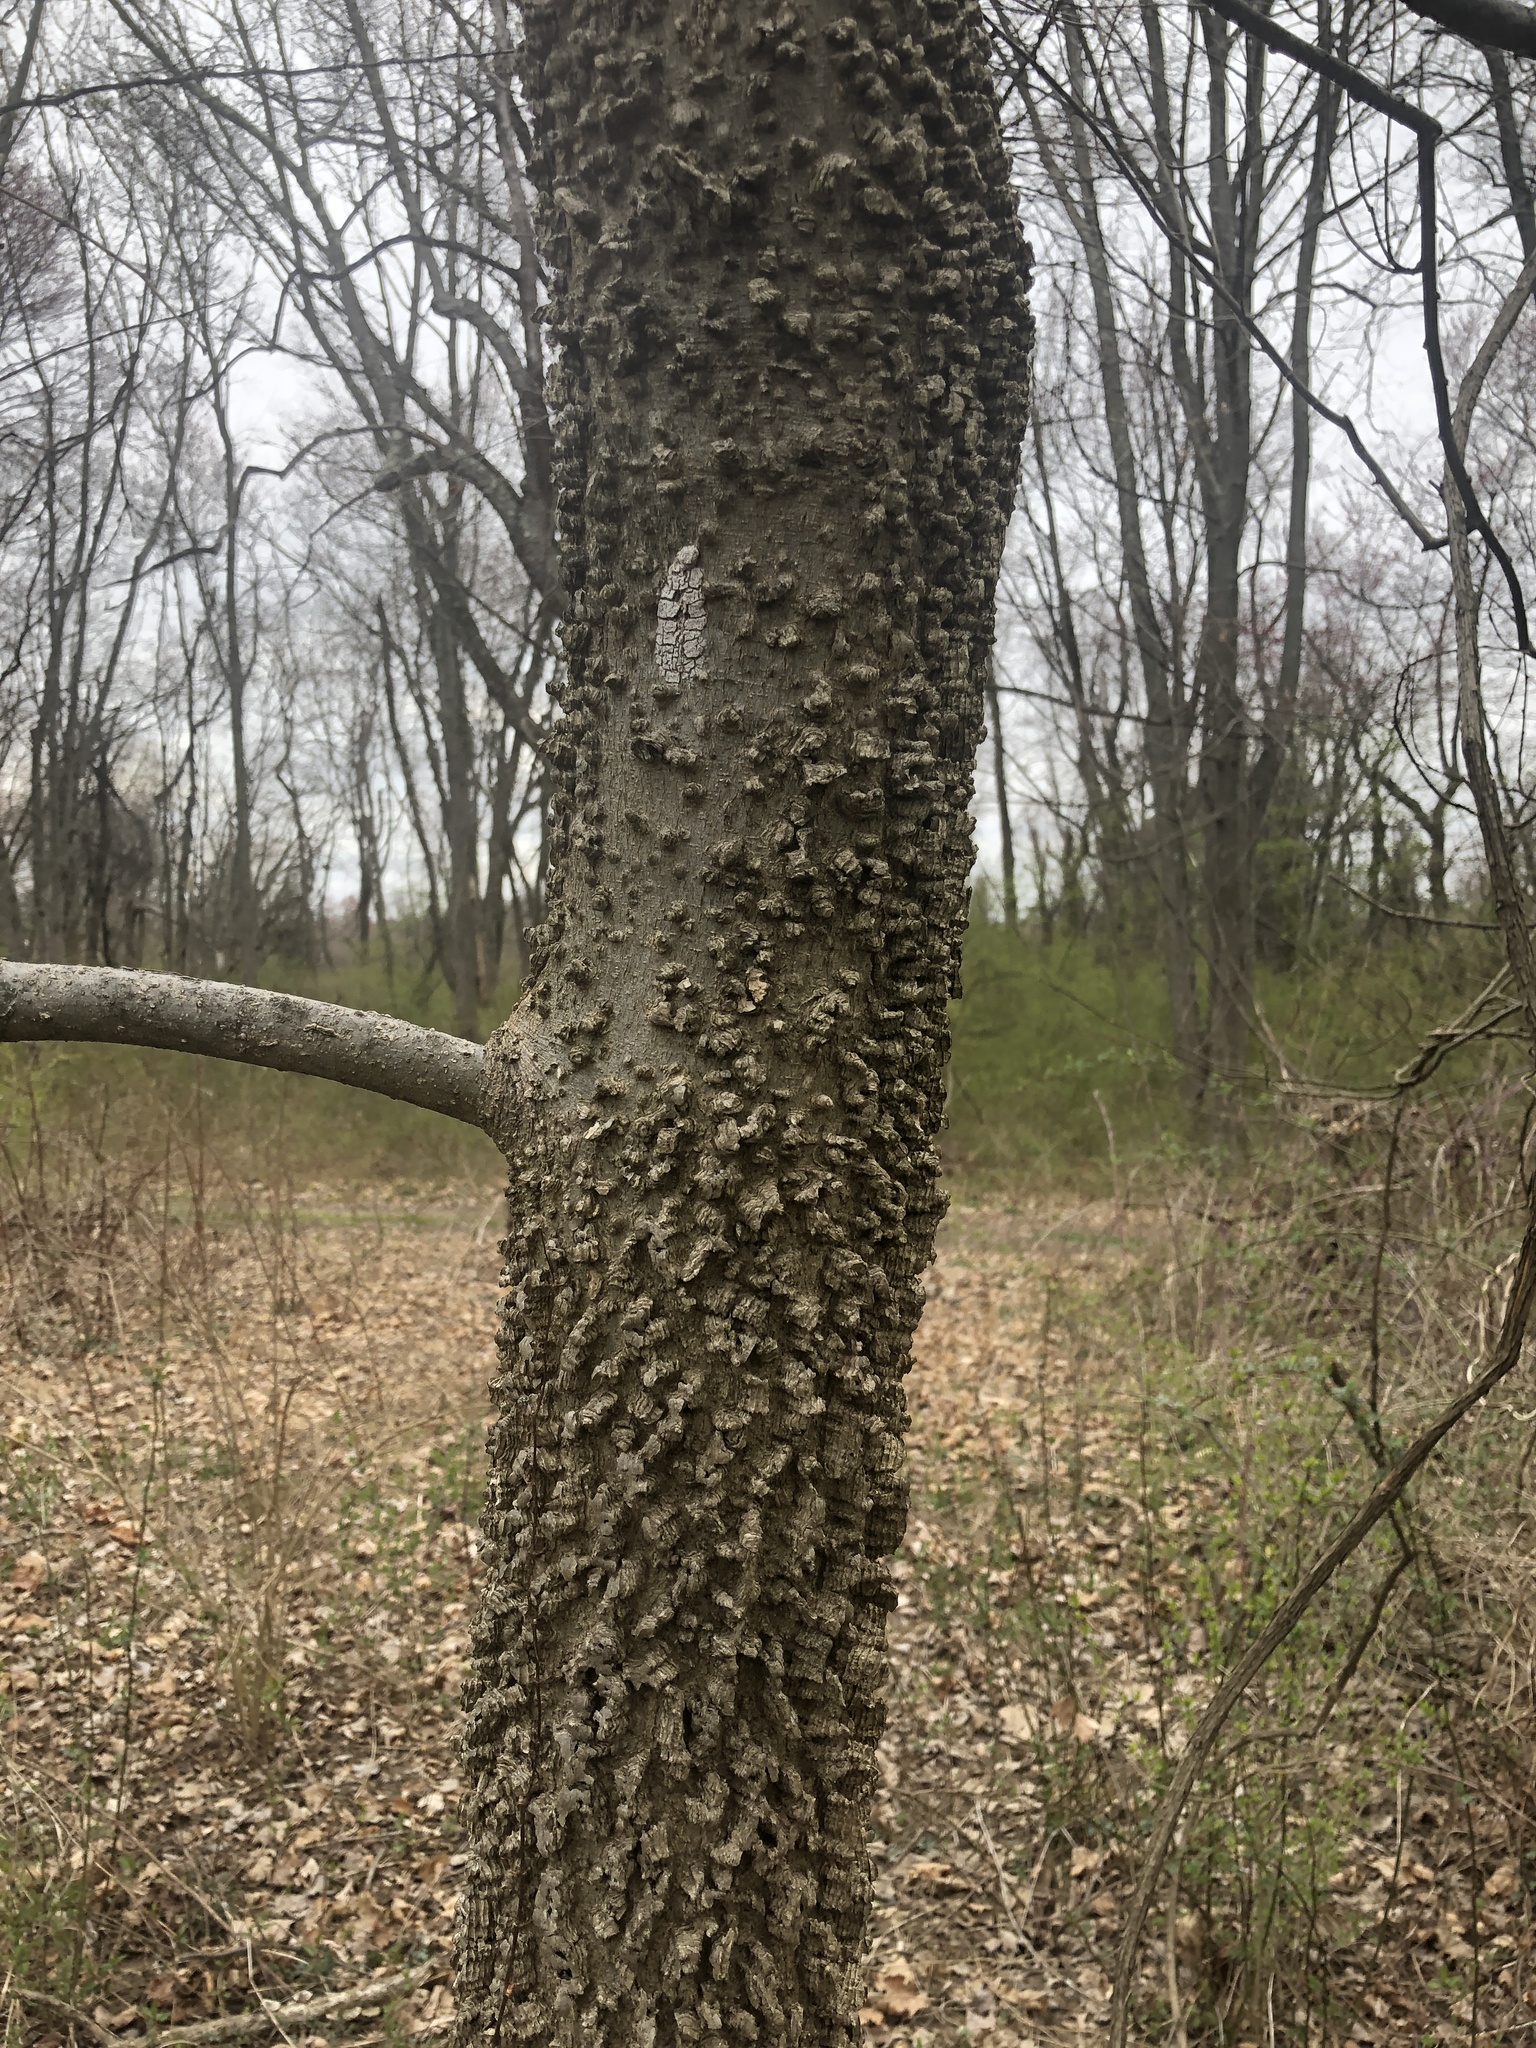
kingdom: Plantae
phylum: Tracheophyta
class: Magnoliopsida
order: Rosales
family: Cannabaceae
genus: Celtis
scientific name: Celtis occidentalis
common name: Common hackberry
